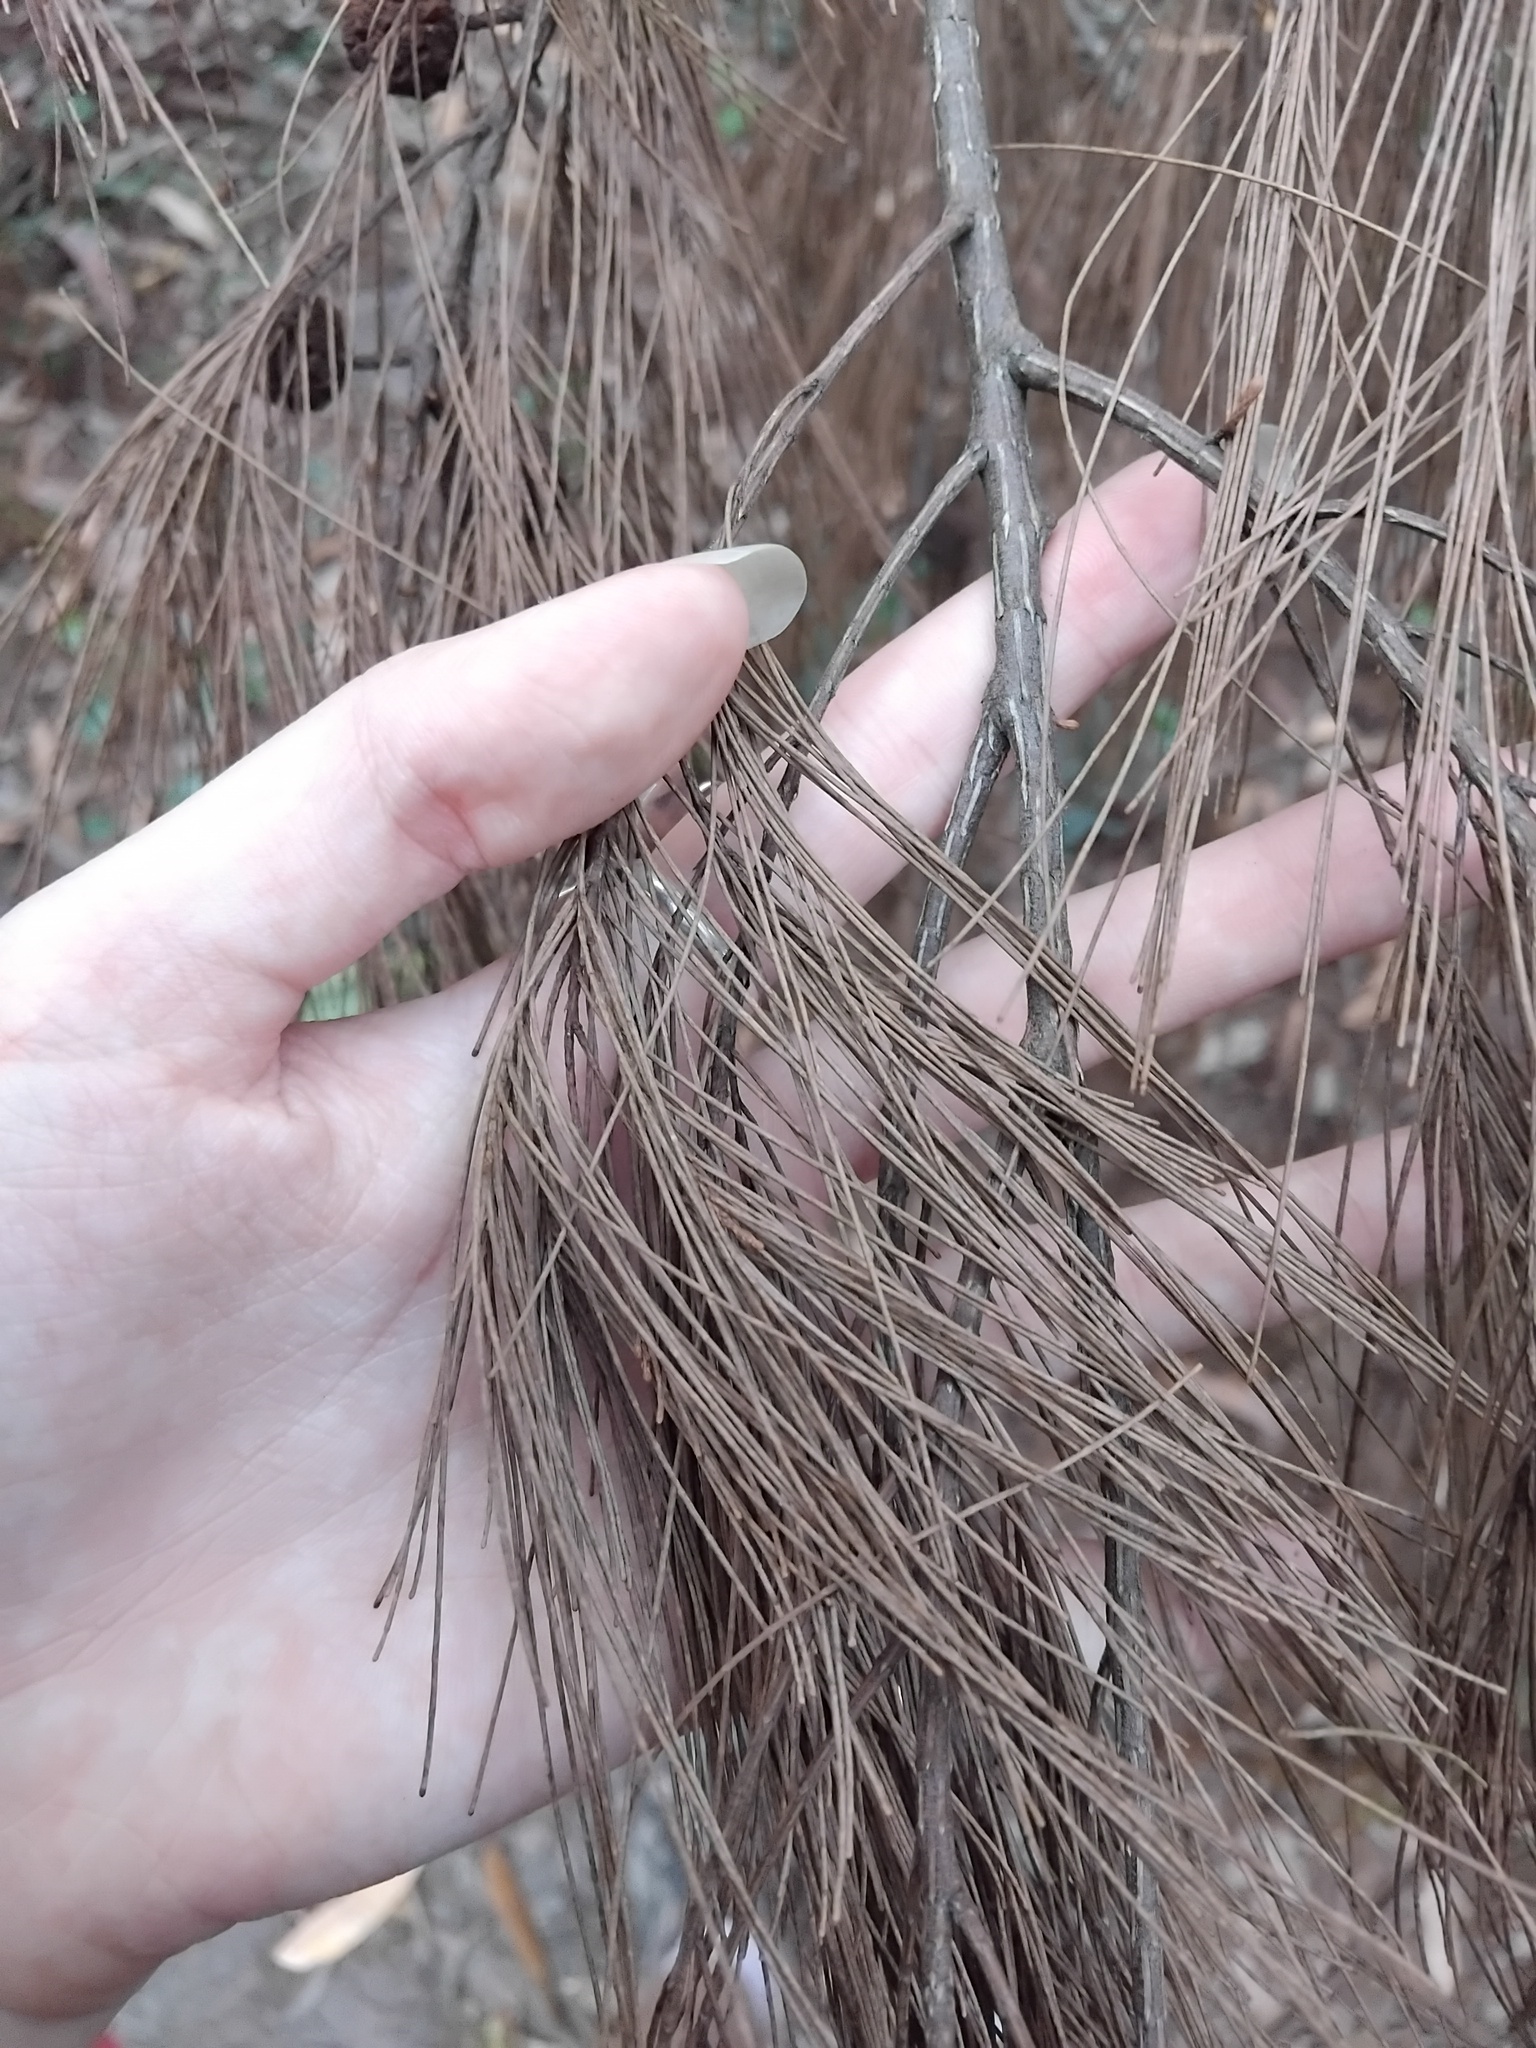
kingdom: Plantae
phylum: Tracheophyta
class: Magnoliopsida
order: Fagales
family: Casuarinaceae
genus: Allocasuarina
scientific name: Allocasuarina torulosa
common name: Forest-oak
